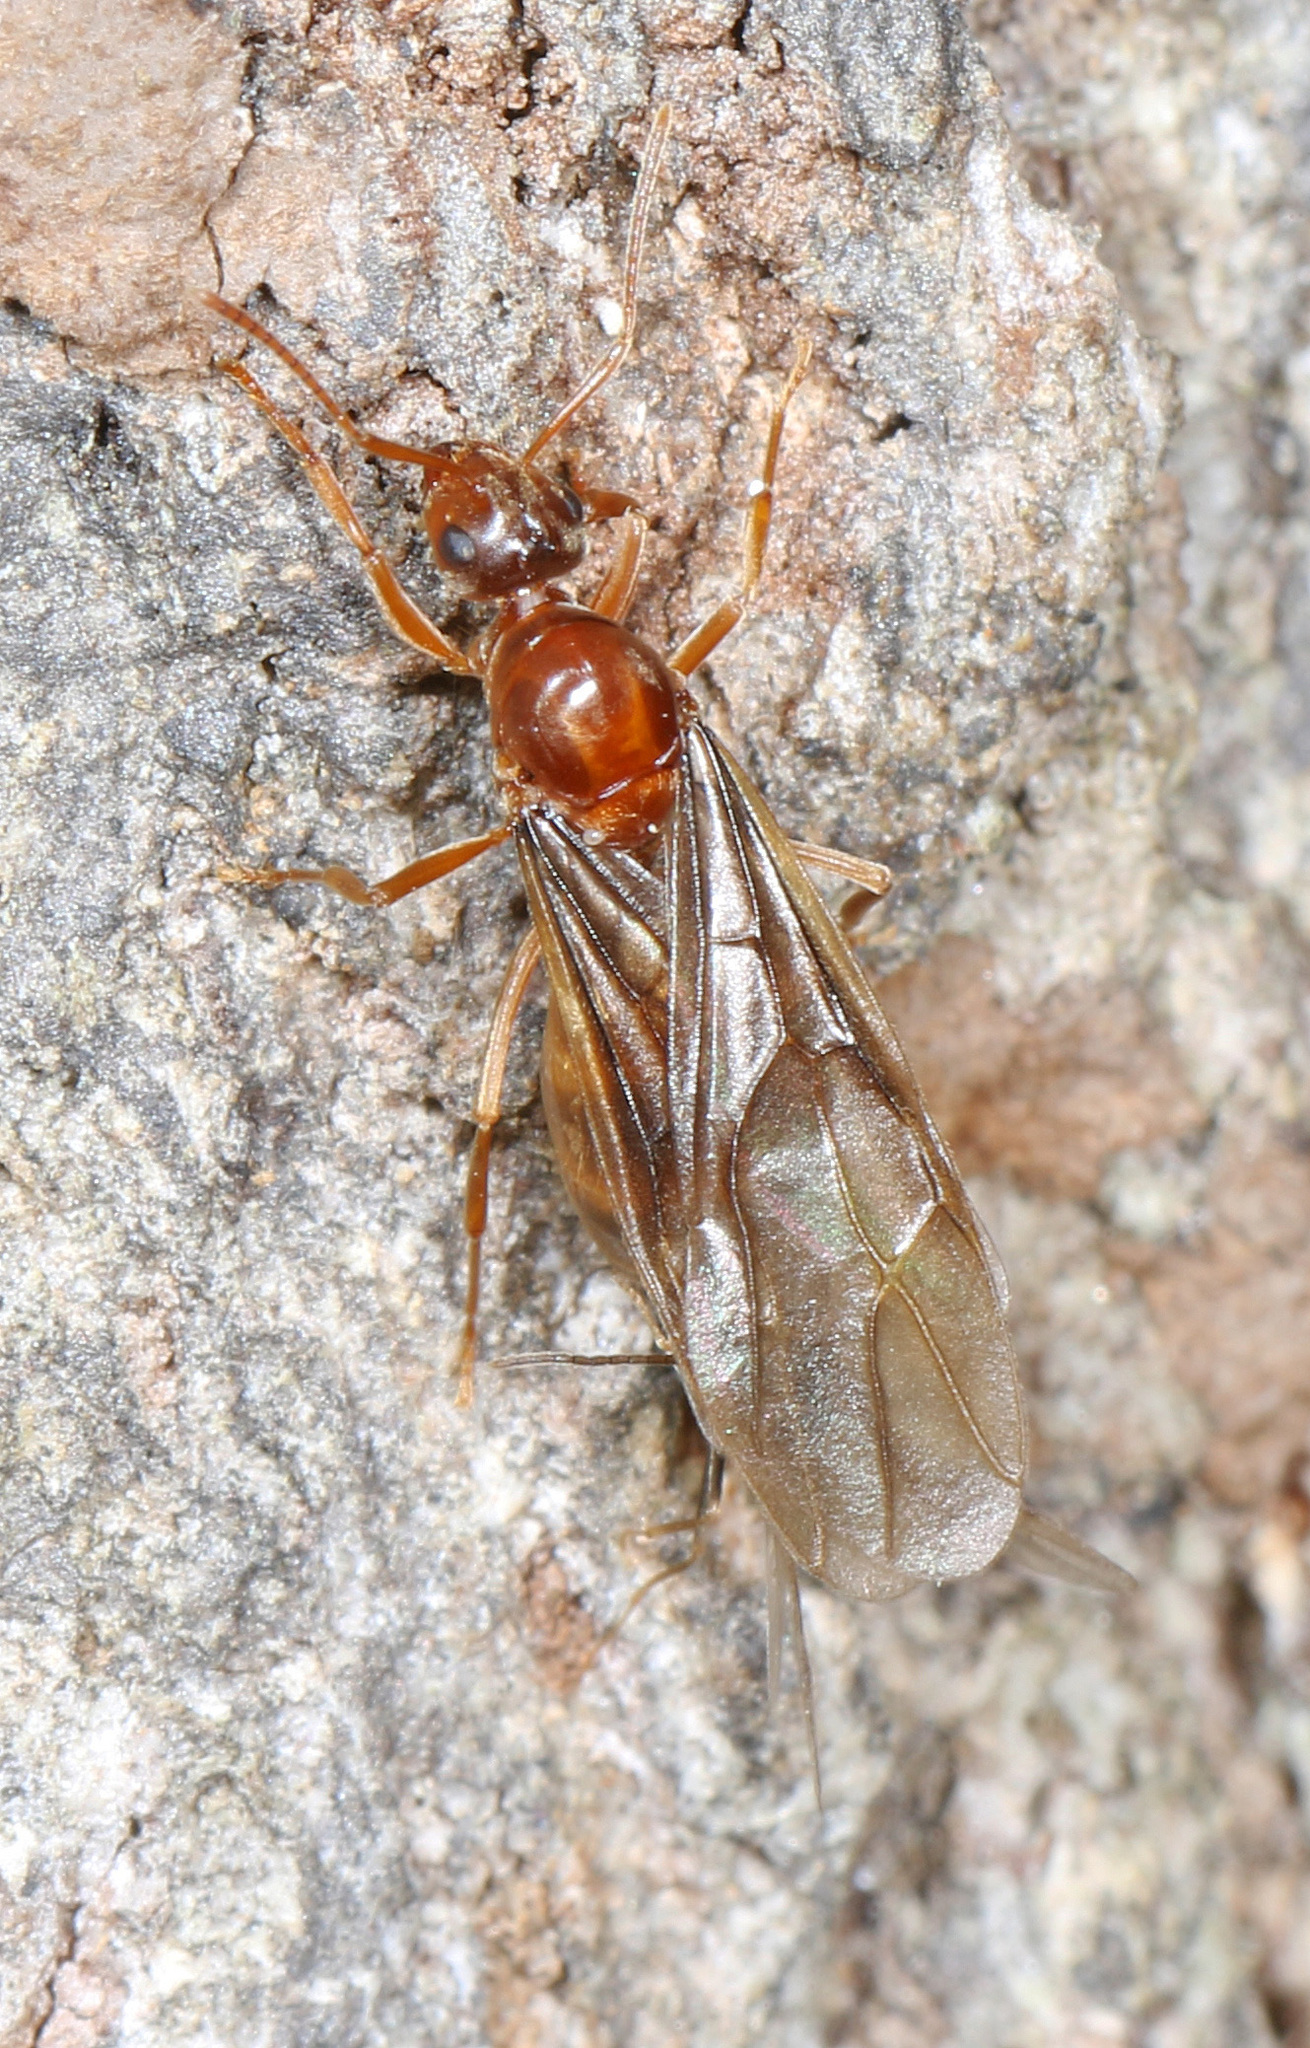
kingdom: Animalia
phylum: Arthropoda
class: Insecta
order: Hymenoptera
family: Formicidae
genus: Prenolepis
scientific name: Prenolepis imparis
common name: Small honey ant
